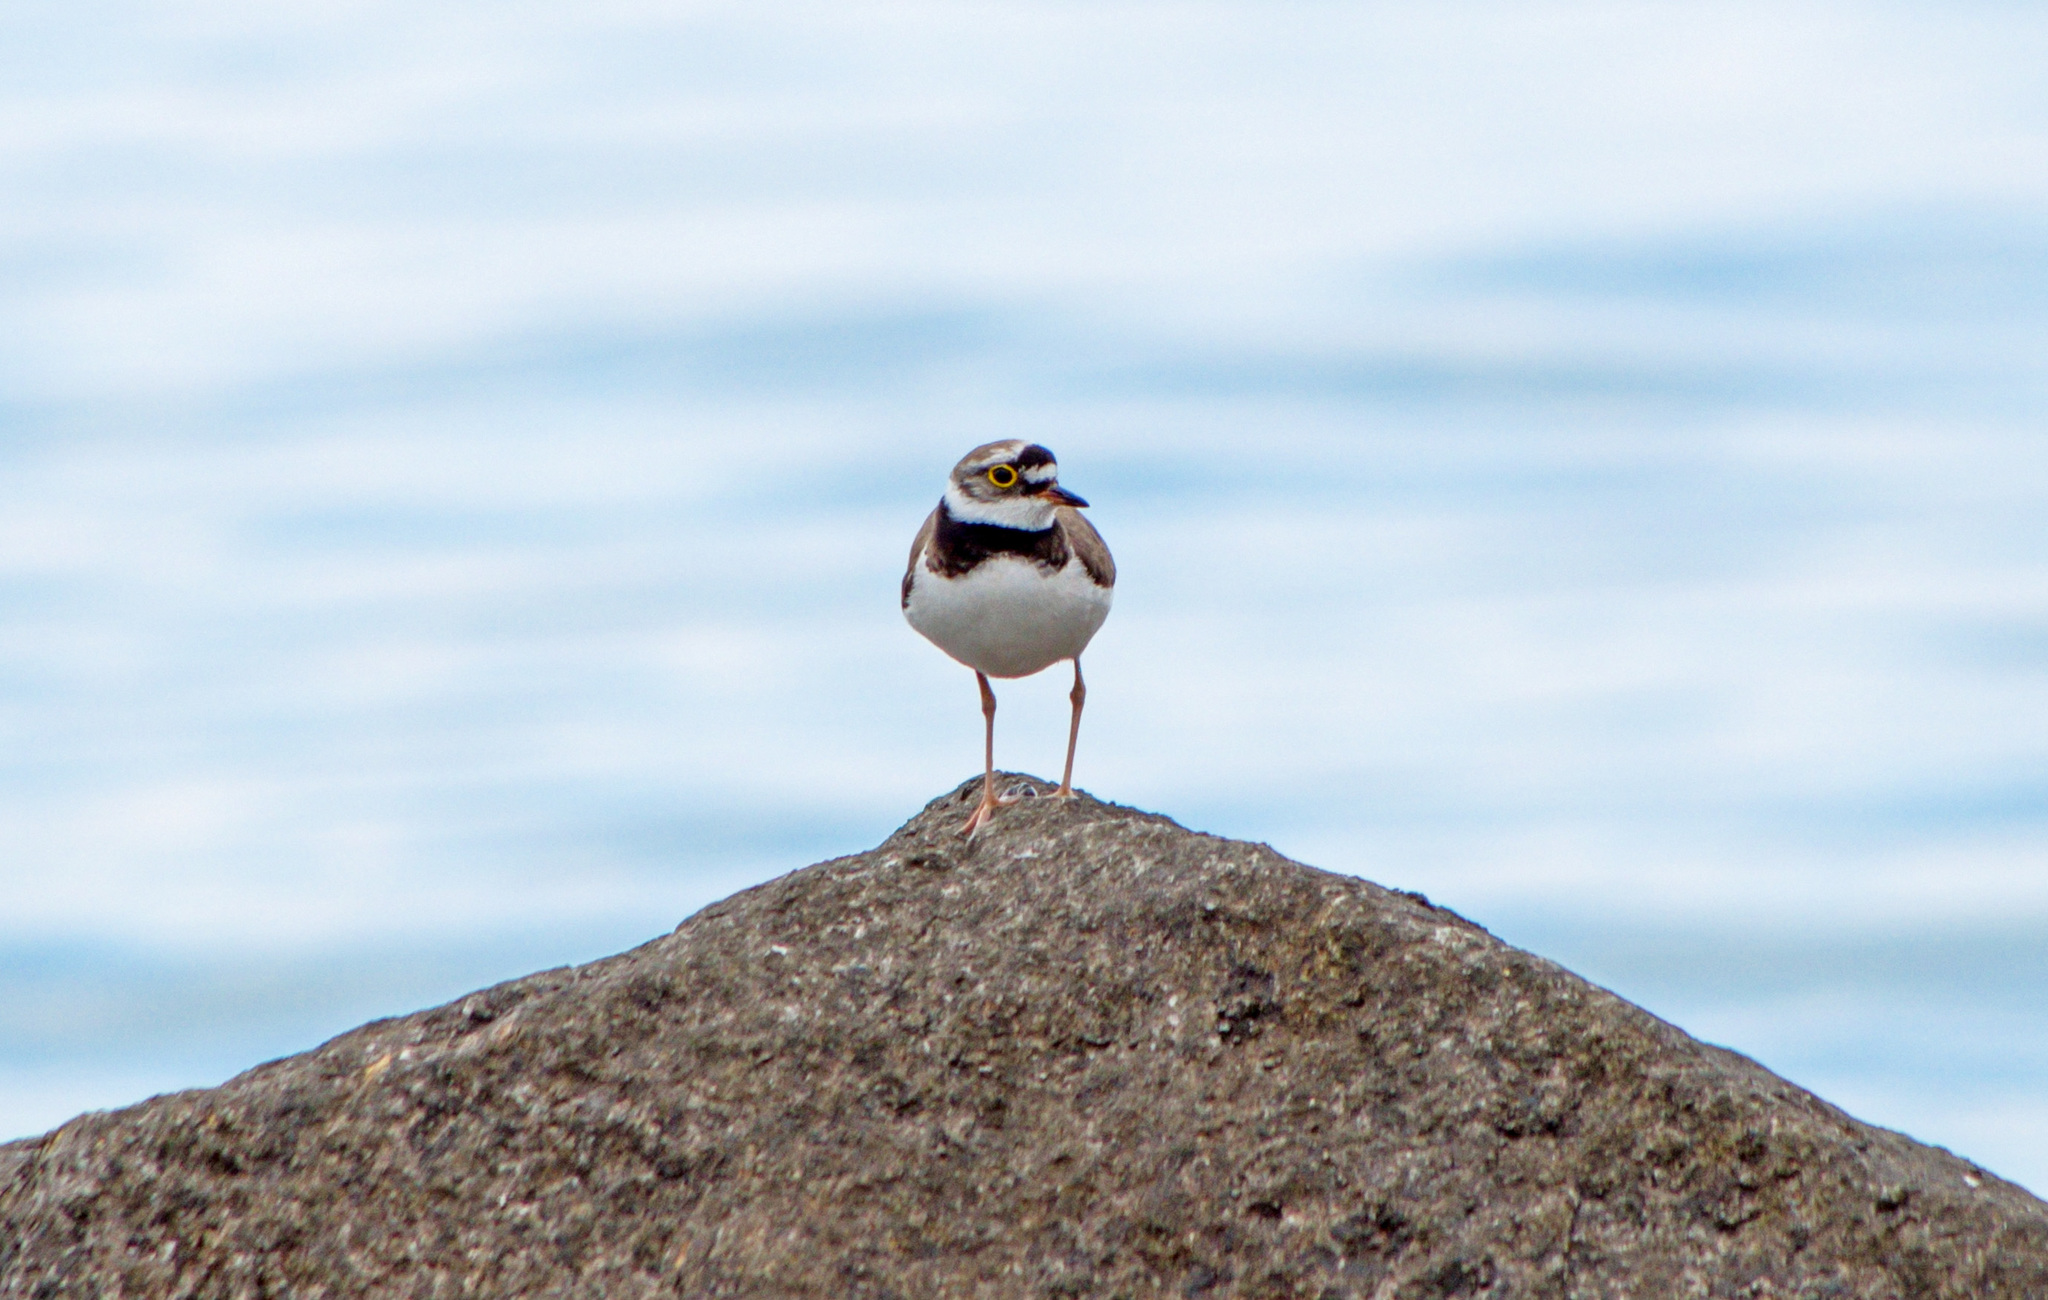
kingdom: Animalia
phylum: Chordata
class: Aves
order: Charadriiformes
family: Charadriidae
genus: Charadrius
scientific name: Charadrius dubius
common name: Little ringed plover
